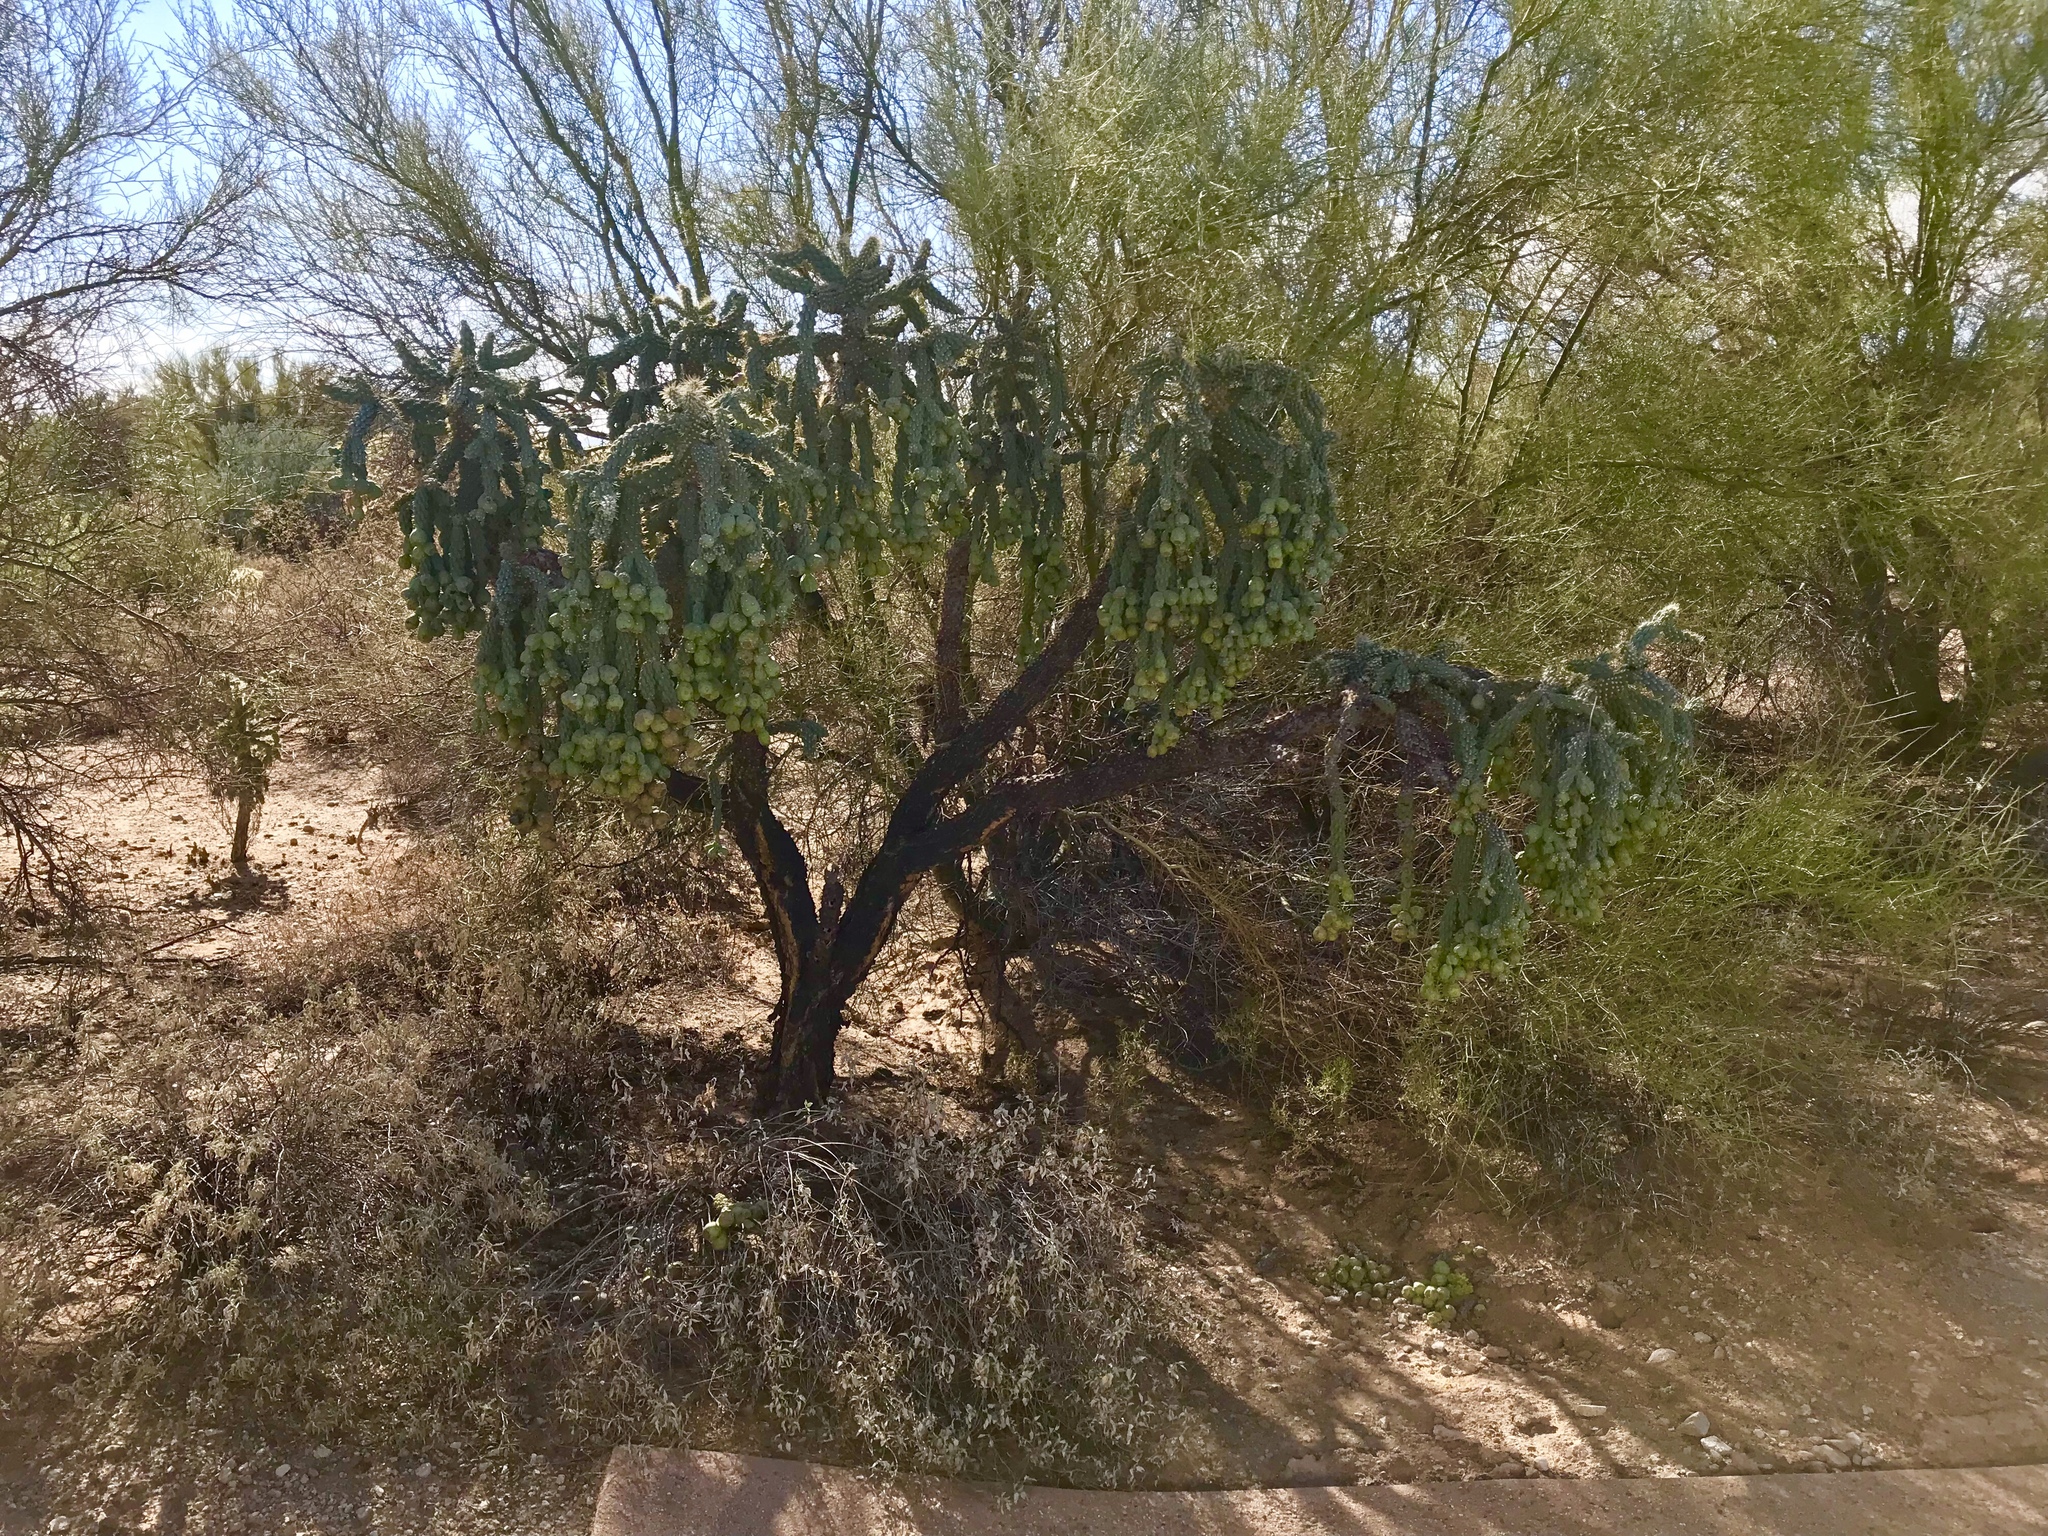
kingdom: Plantae
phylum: Tracheophyta
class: Magnoliopsida
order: Caryophyllales
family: Cactaceae
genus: Cylindropuntia
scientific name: Cylindropuntia fulgida
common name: Jumping cholla
